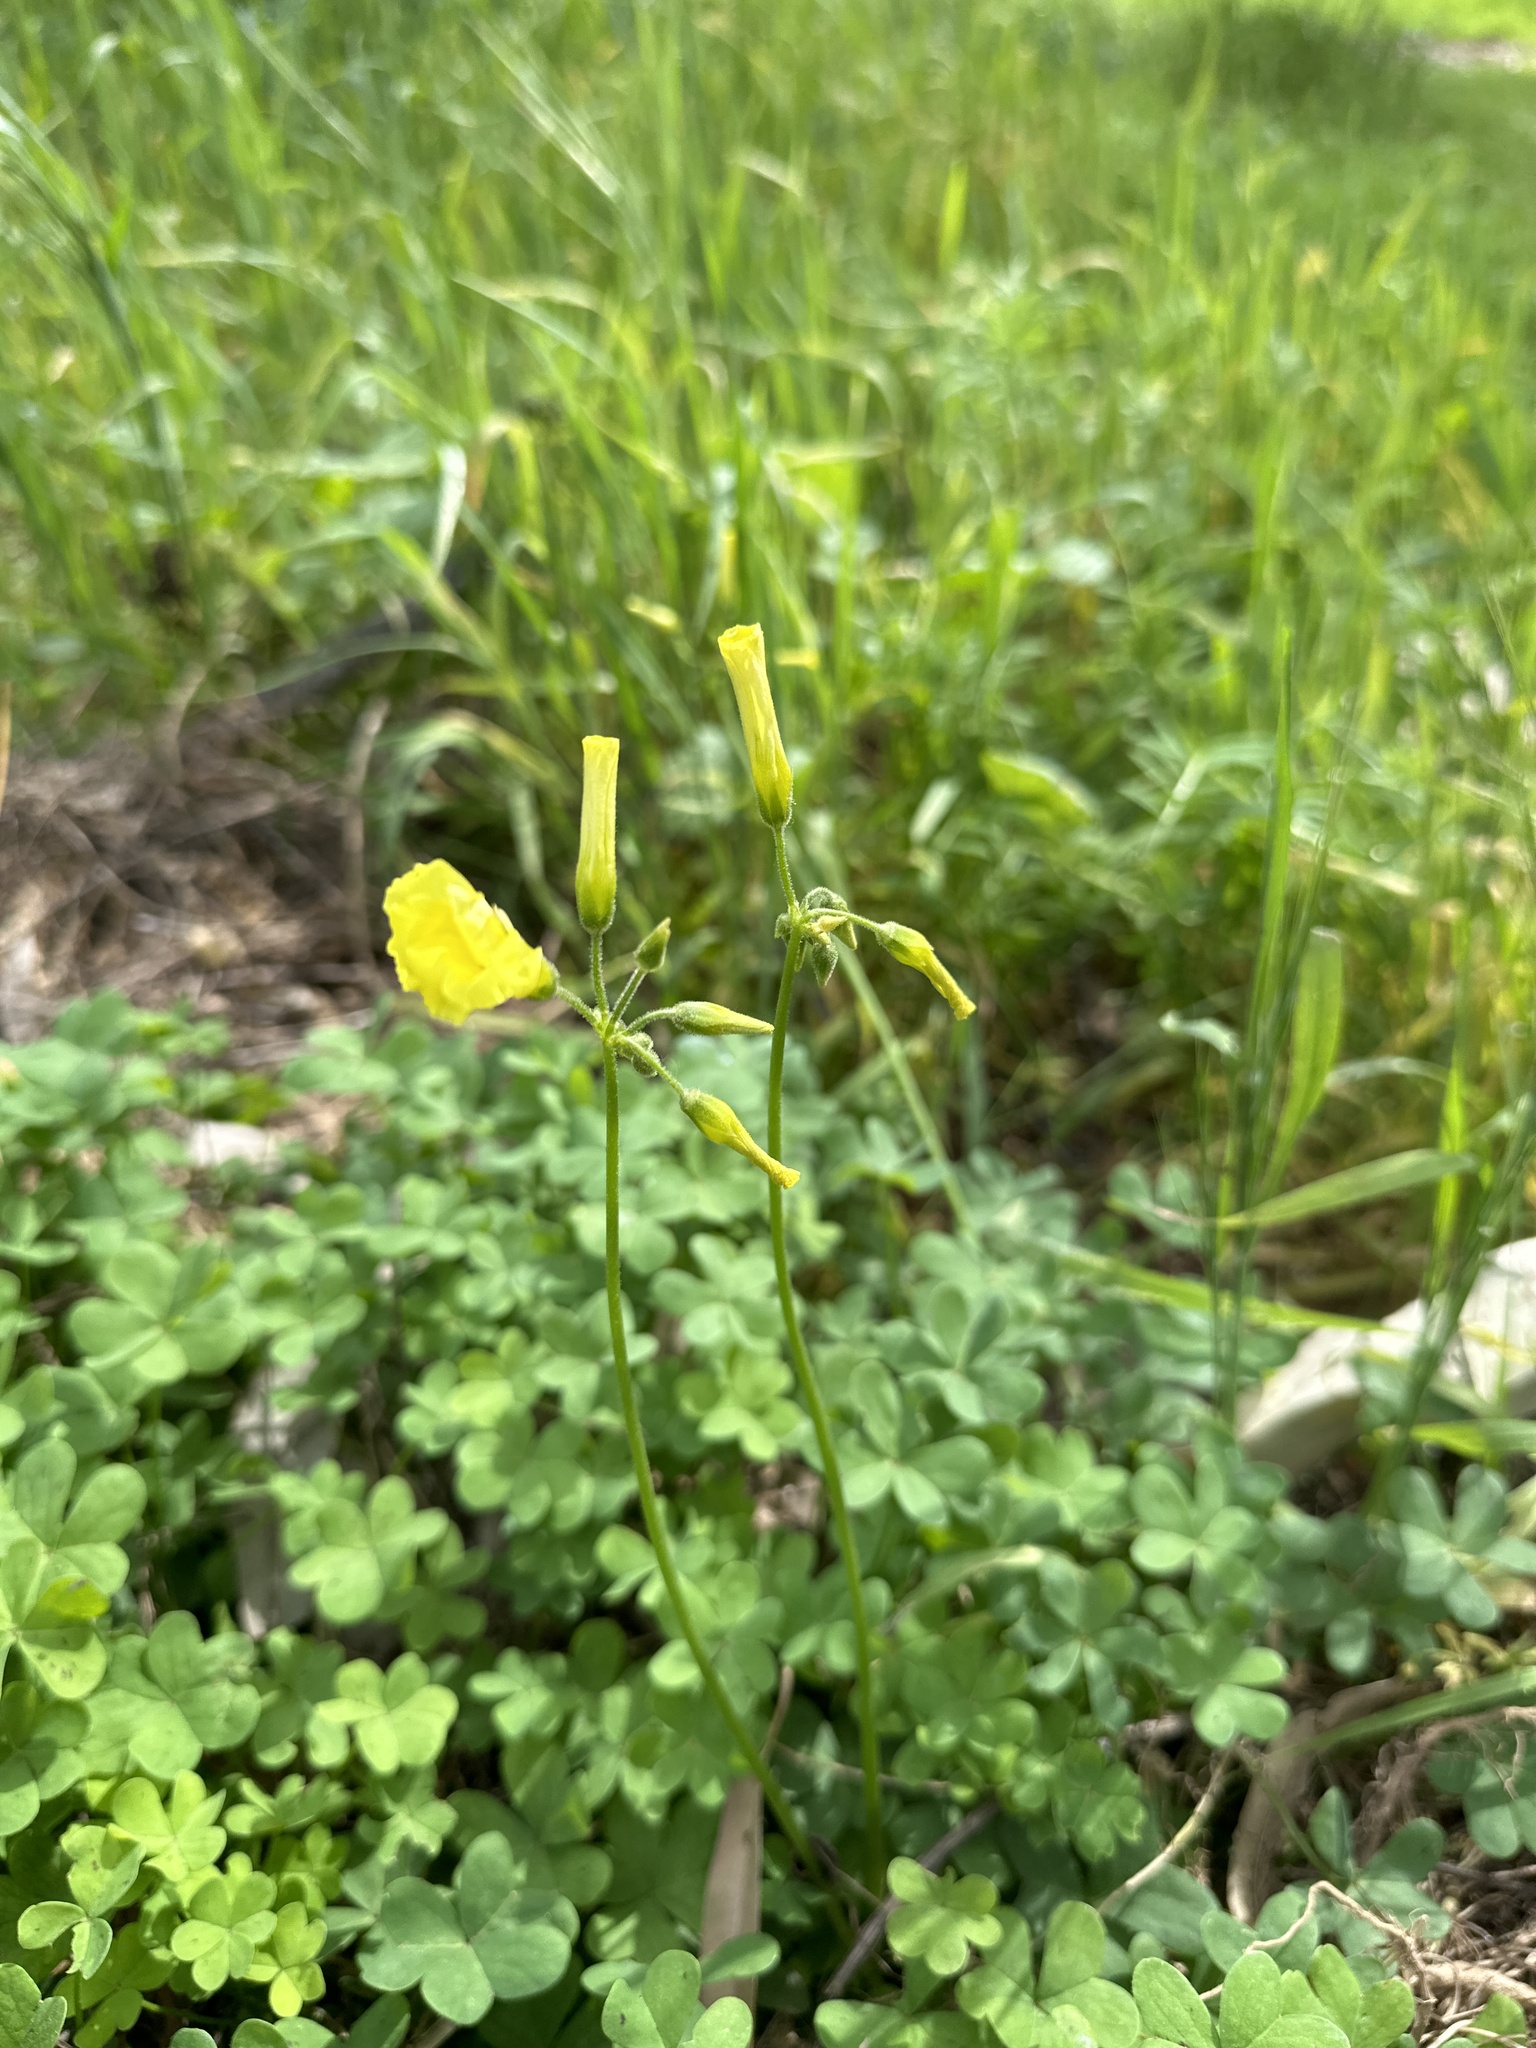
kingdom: Plantae
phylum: Tracheophyta
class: Magnoliopsida
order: Oxalidales
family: Oxalidaceae
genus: Oxalis
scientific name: Oxalis pes-caprae
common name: Bermuda-buttercup
